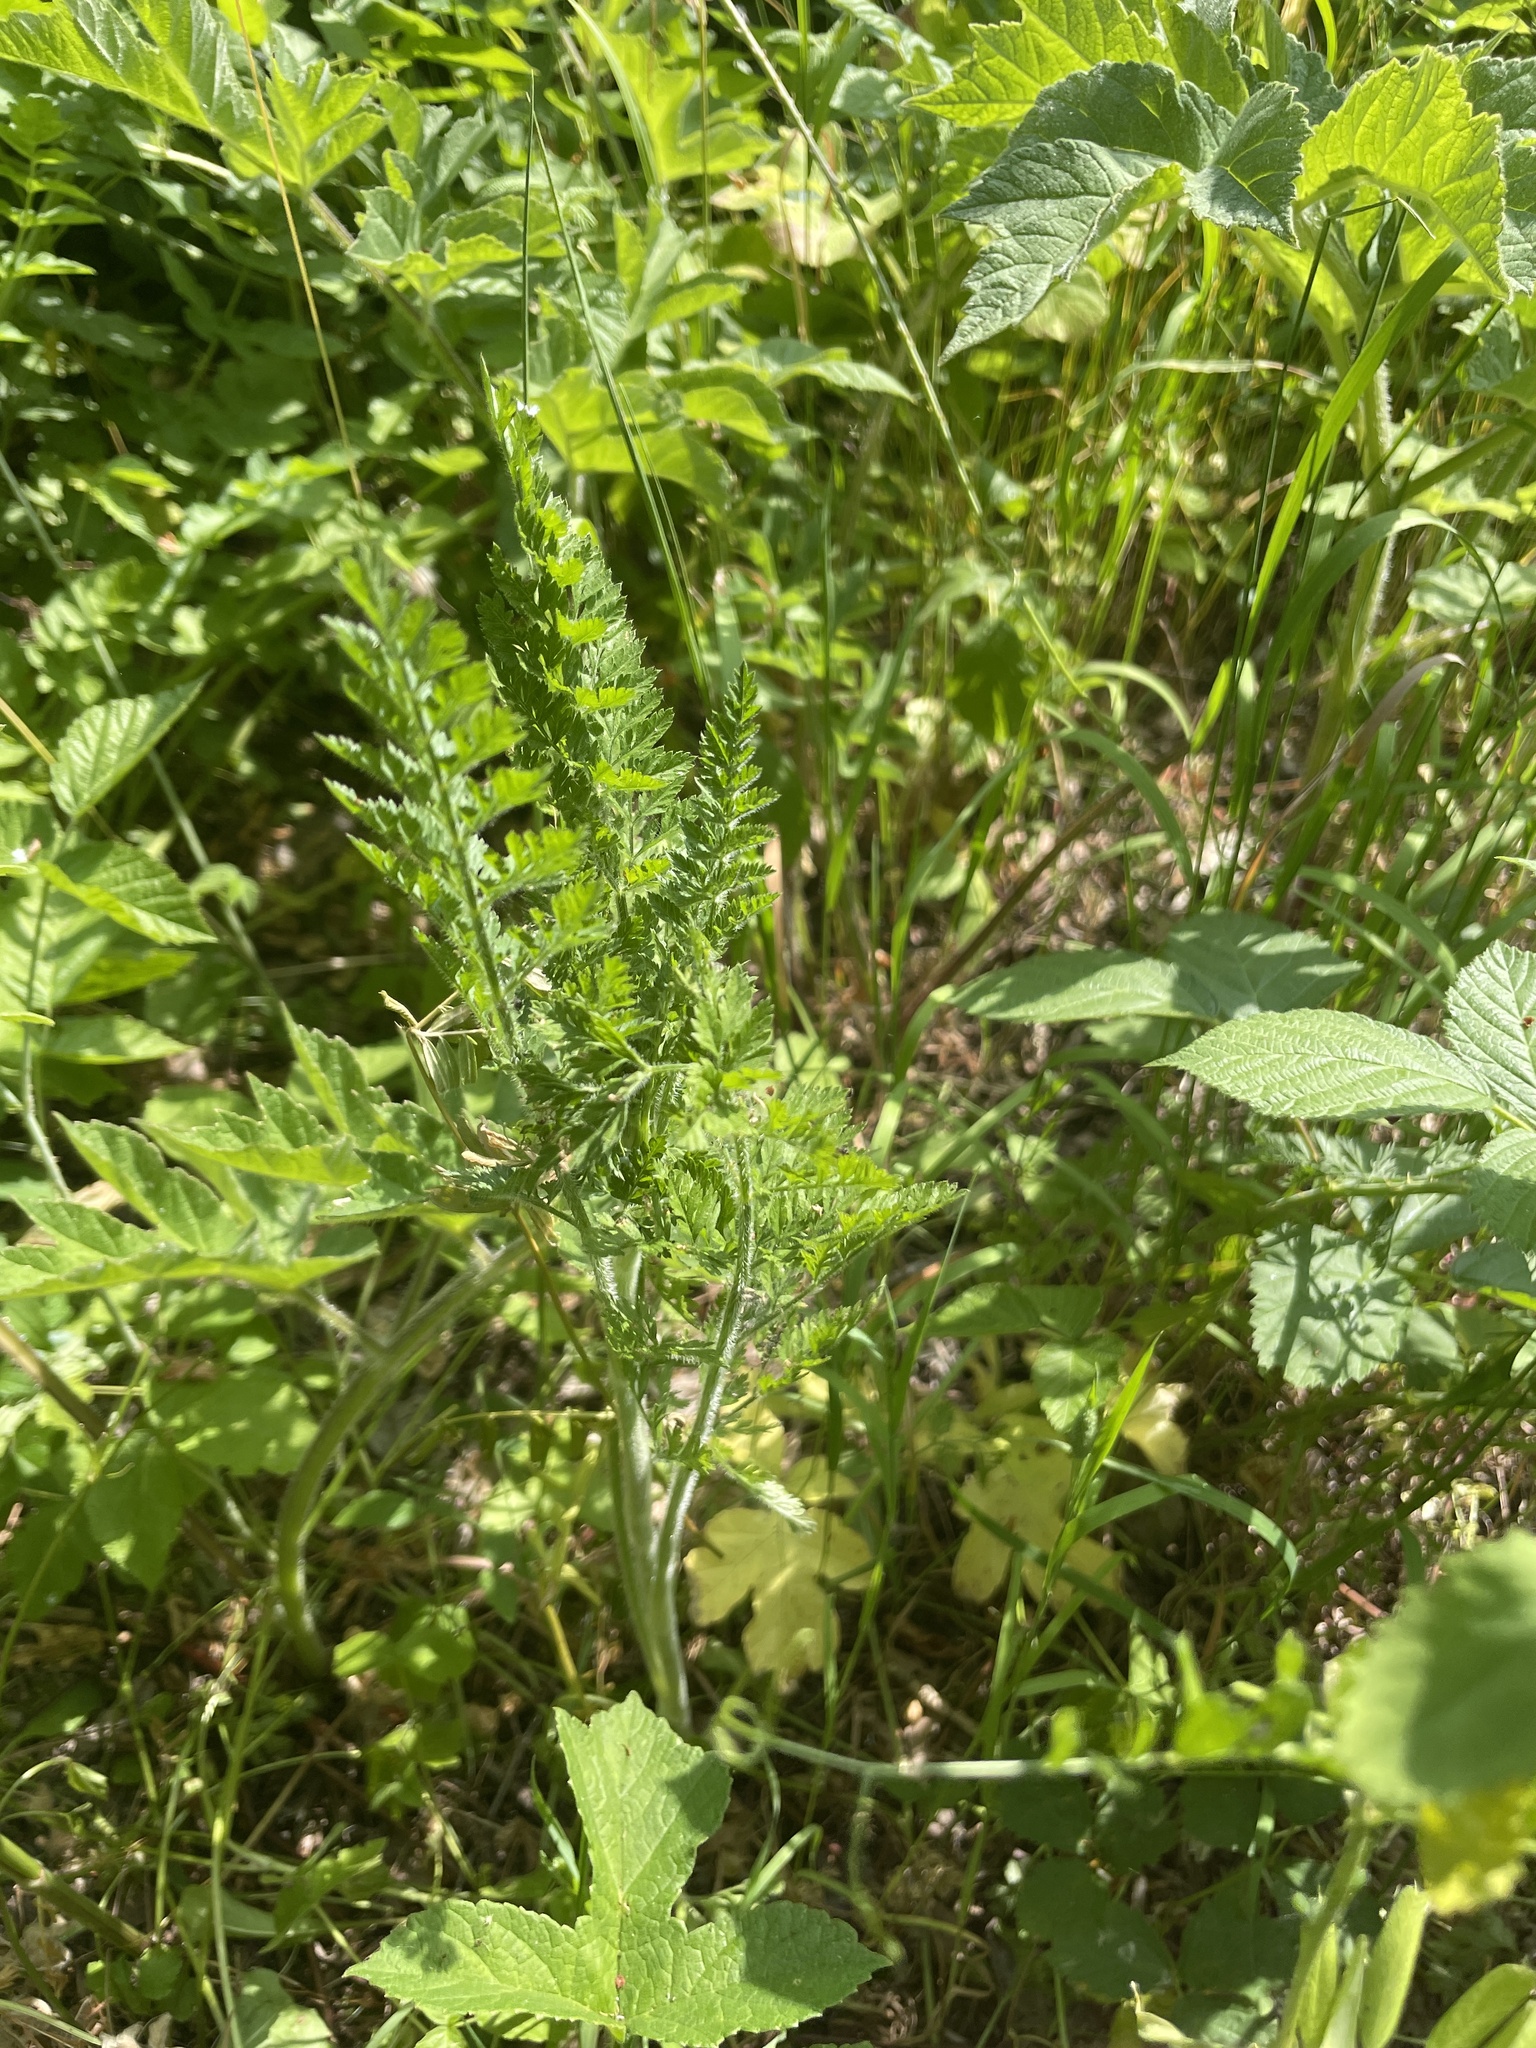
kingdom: Plantae
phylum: Tracheophyta
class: Magnoliopsida
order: Apiales
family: Apiaceae
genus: Daucus
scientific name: Daucus carota
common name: Wild carrot
